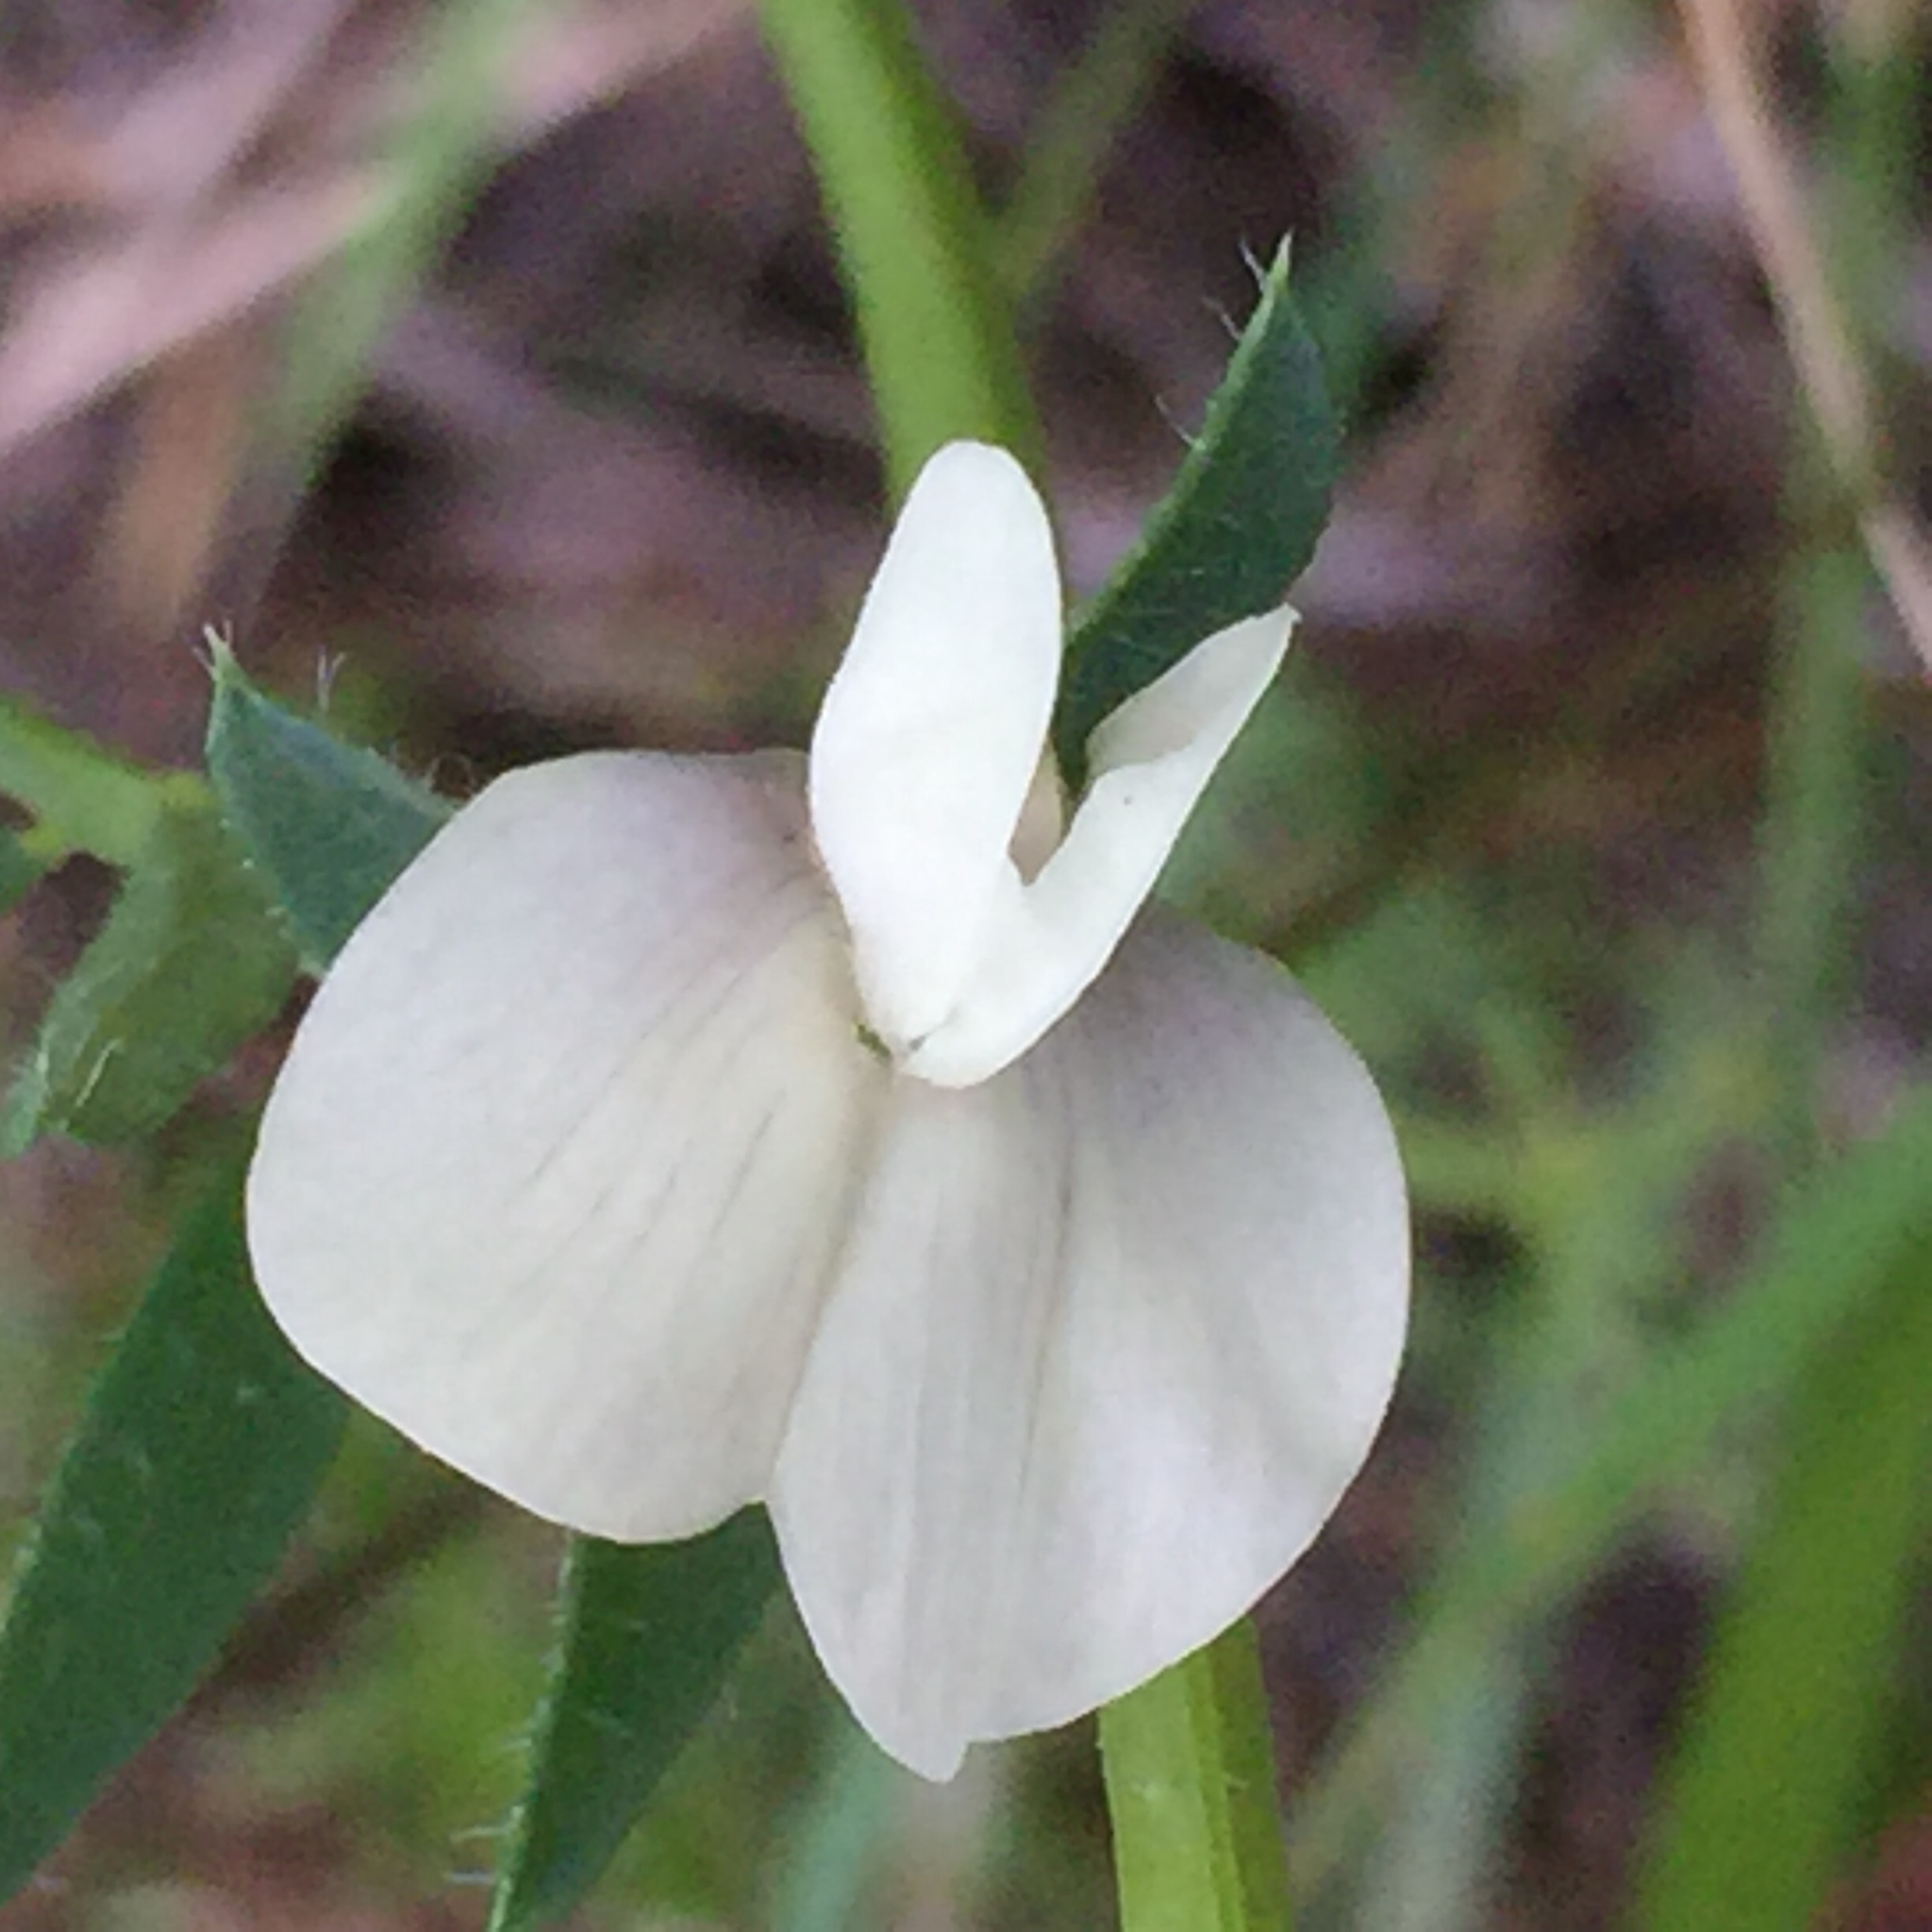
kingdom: Plantae
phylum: Tracheophyta
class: Magnoliopsida
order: Fabales
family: Fabaceae
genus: Vicia
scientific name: Vicia grandiflora
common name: Large yellow vetch
